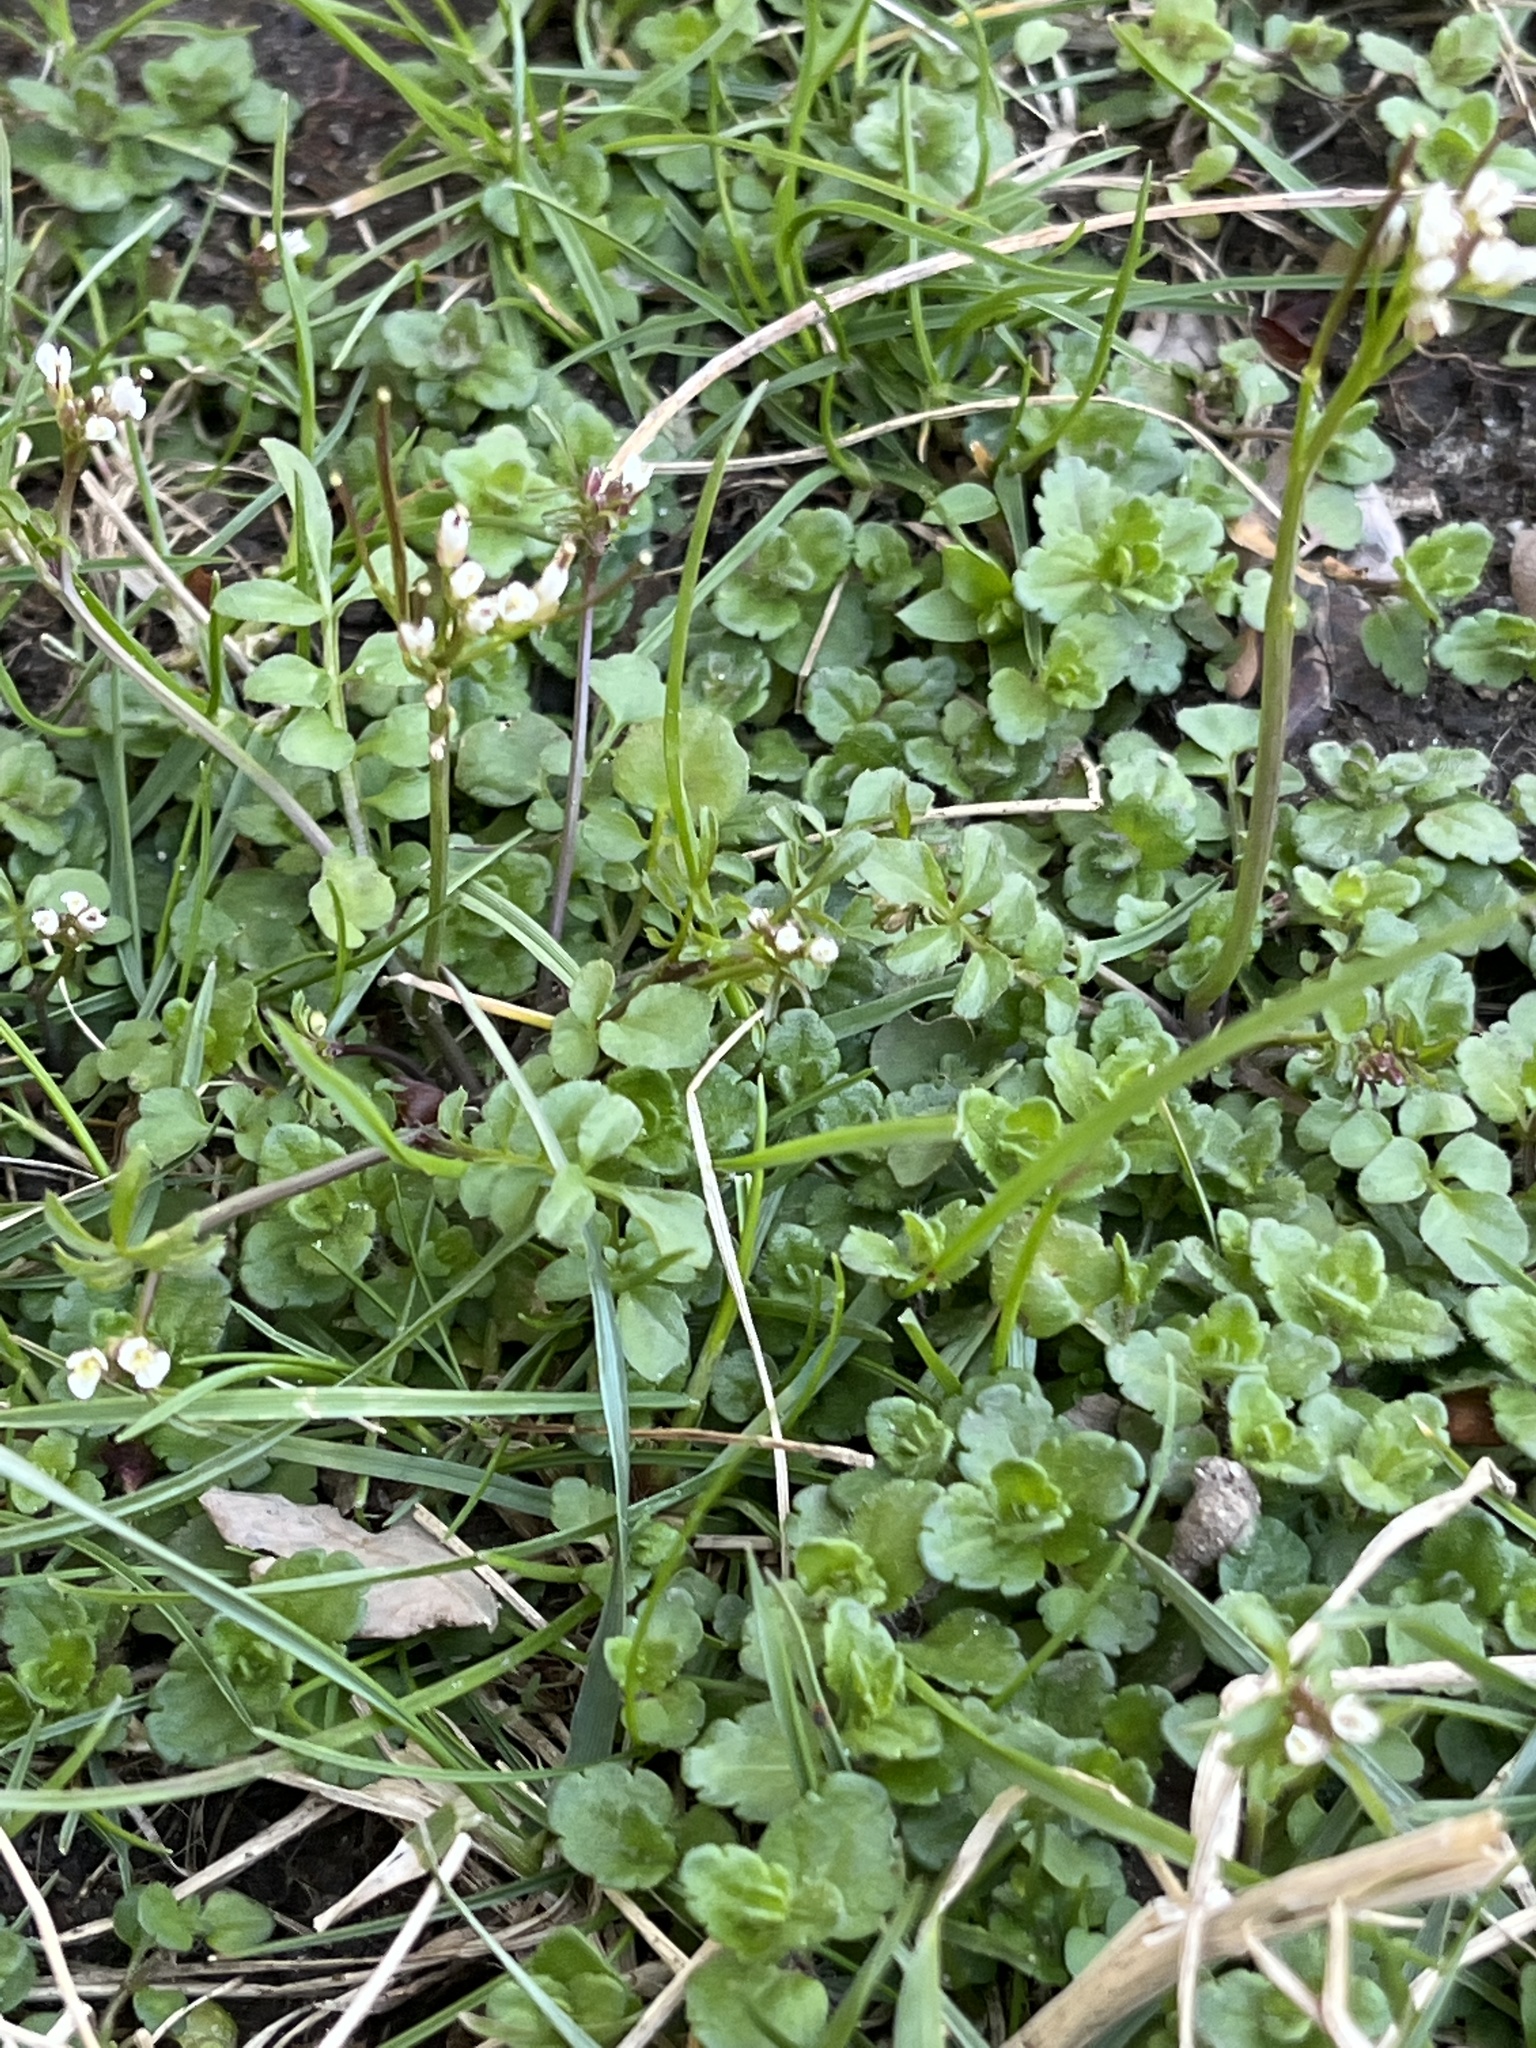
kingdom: Plantae
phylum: Tracheophyta
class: Magnoliopsida
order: Brassicales
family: Brassicaceae
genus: Cardamine
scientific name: Cardamine hirsuta
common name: Hairy bittercress
